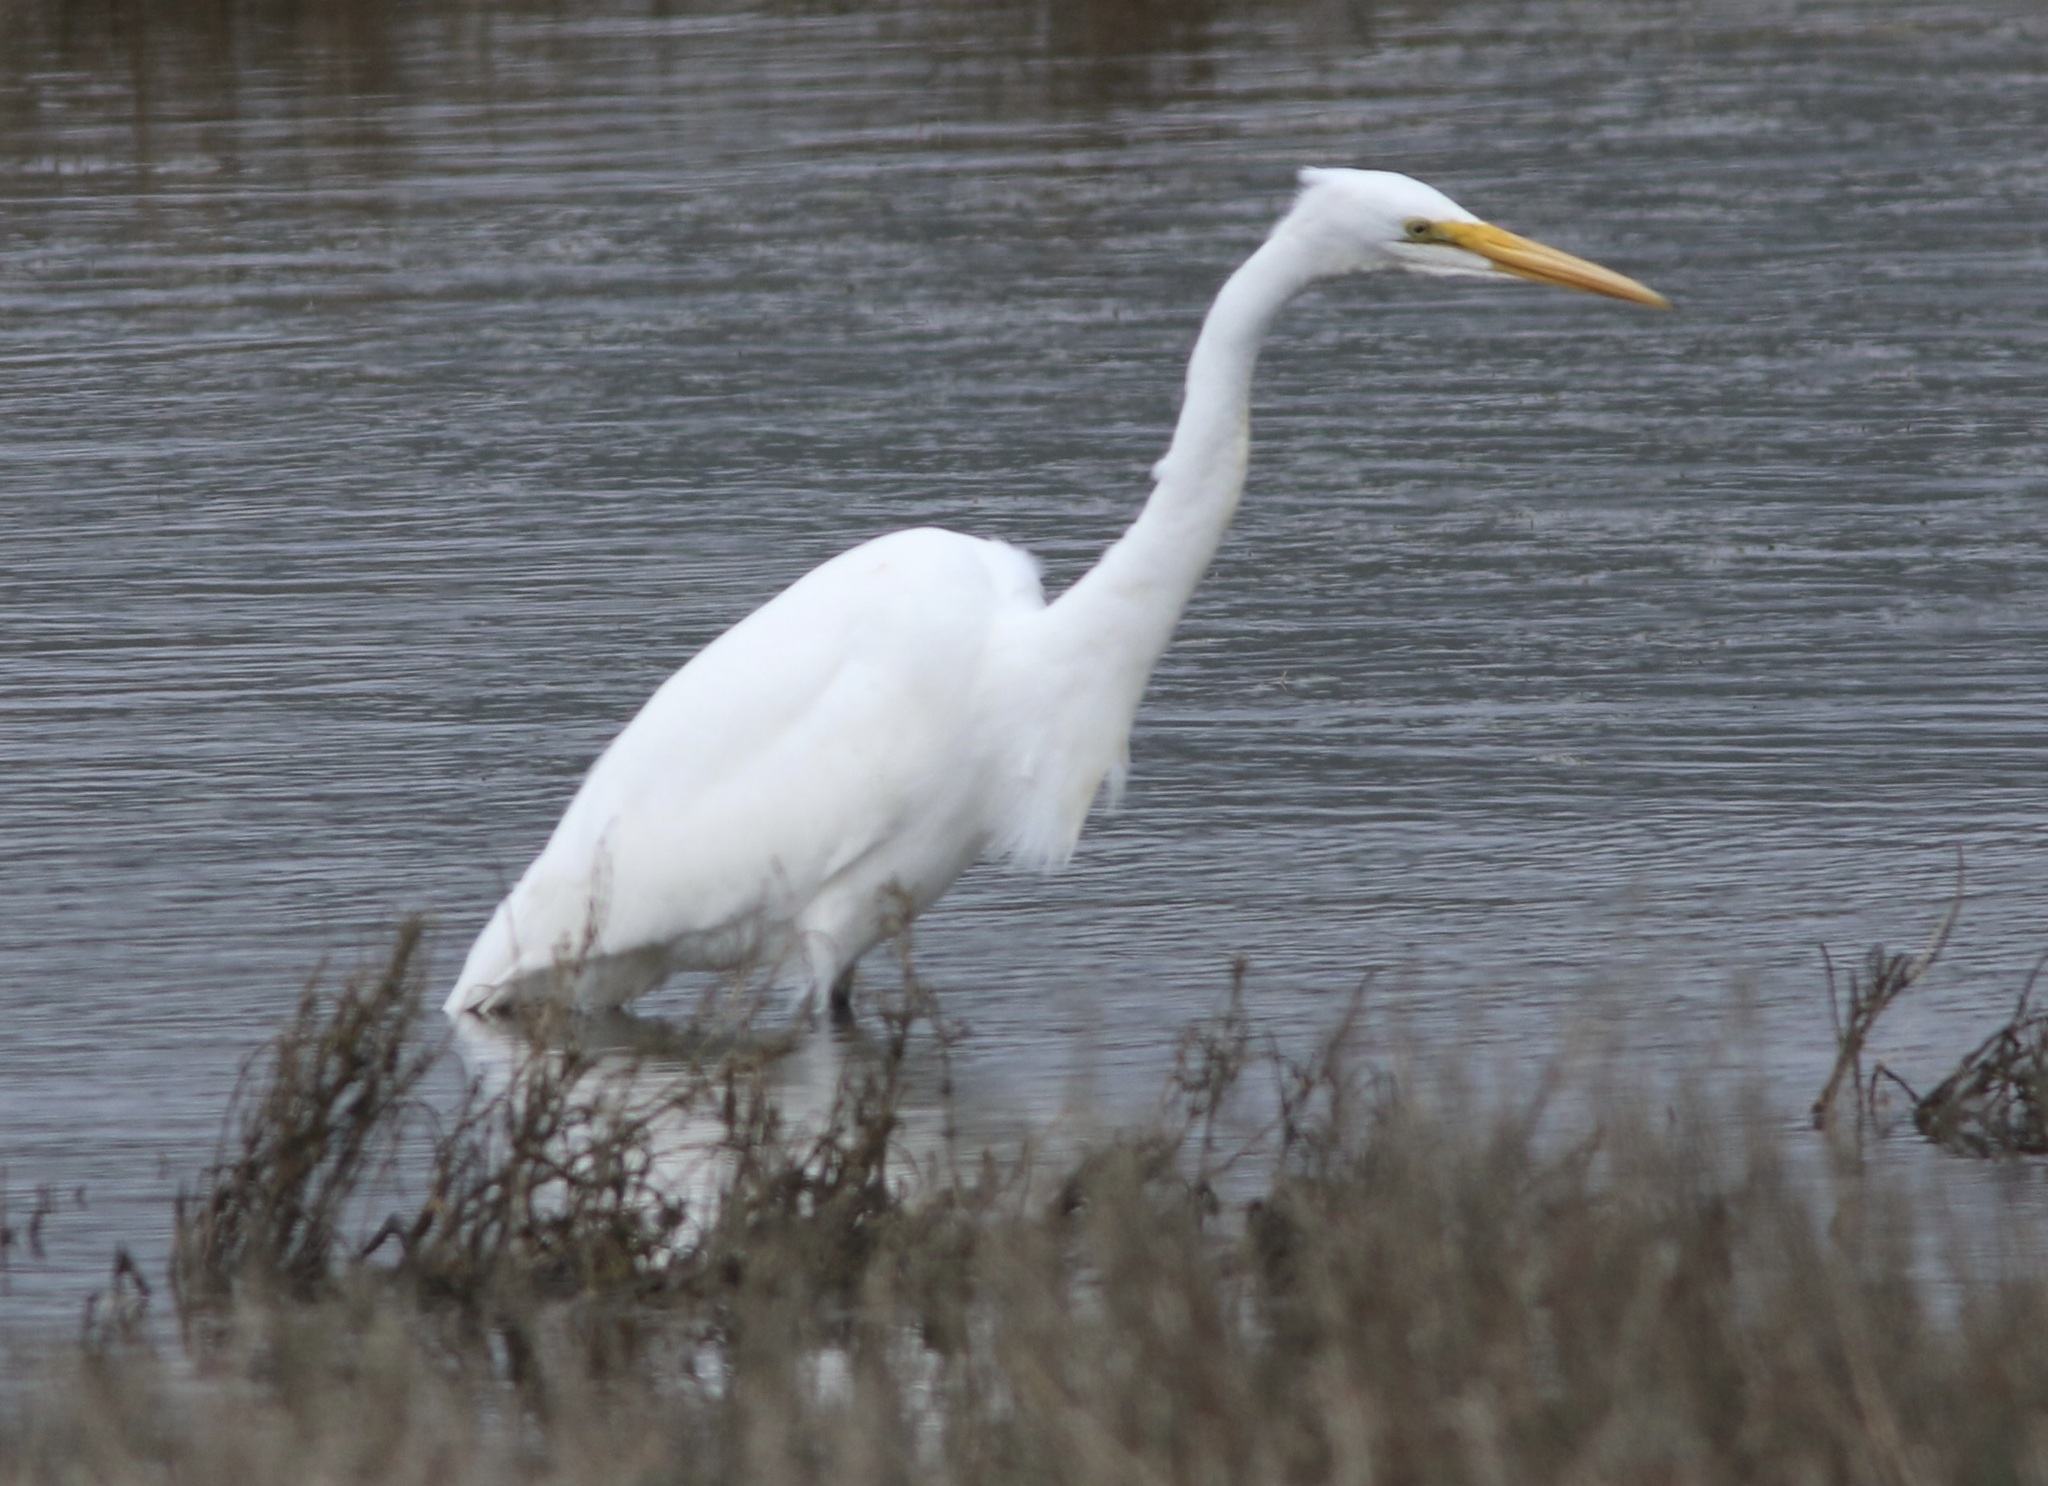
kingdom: Animalia
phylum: Chordata
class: Aves
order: Pelecaniformes
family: Ardeidae
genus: Ardea
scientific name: Ardea alba
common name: Great egret
